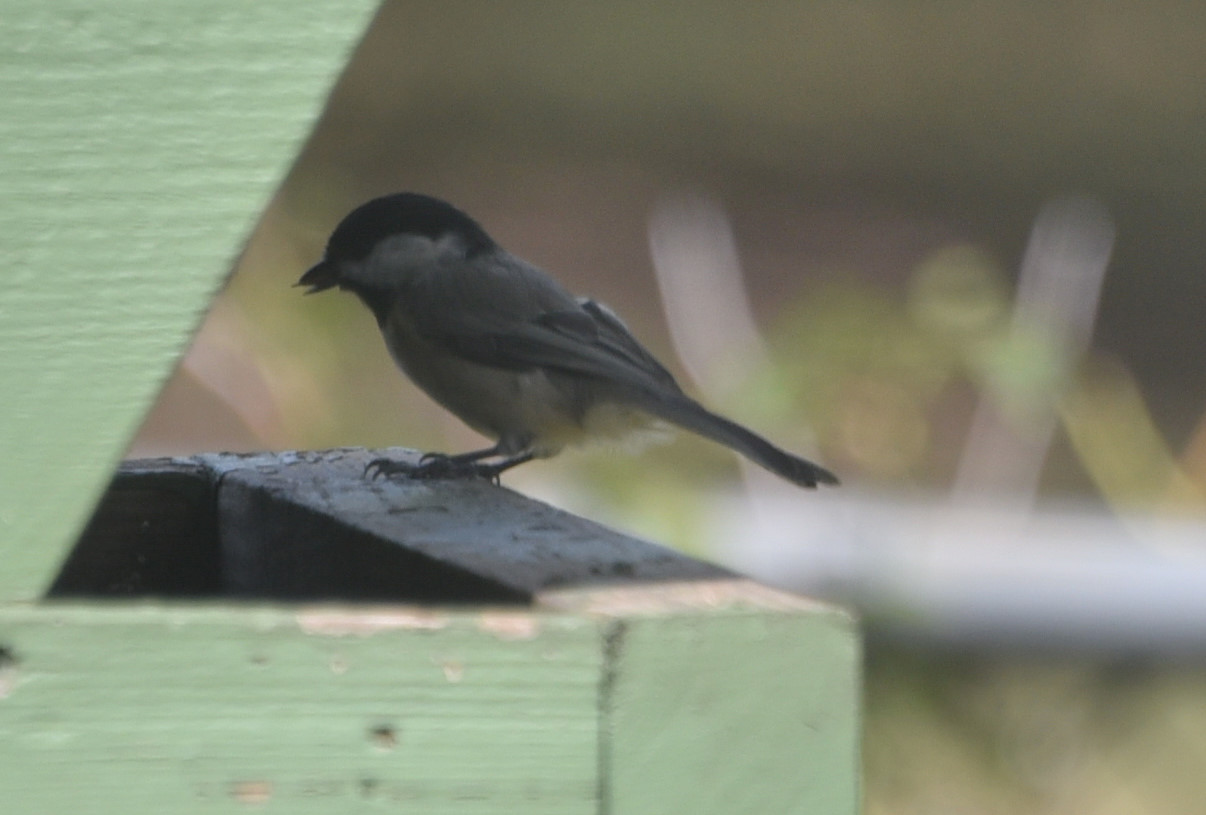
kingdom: Animalia
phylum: Chordata
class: Aves
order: Passeriformes
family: Paridae
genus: Poecile
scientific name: Poecile carolinensis
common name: Carolina chickadee
